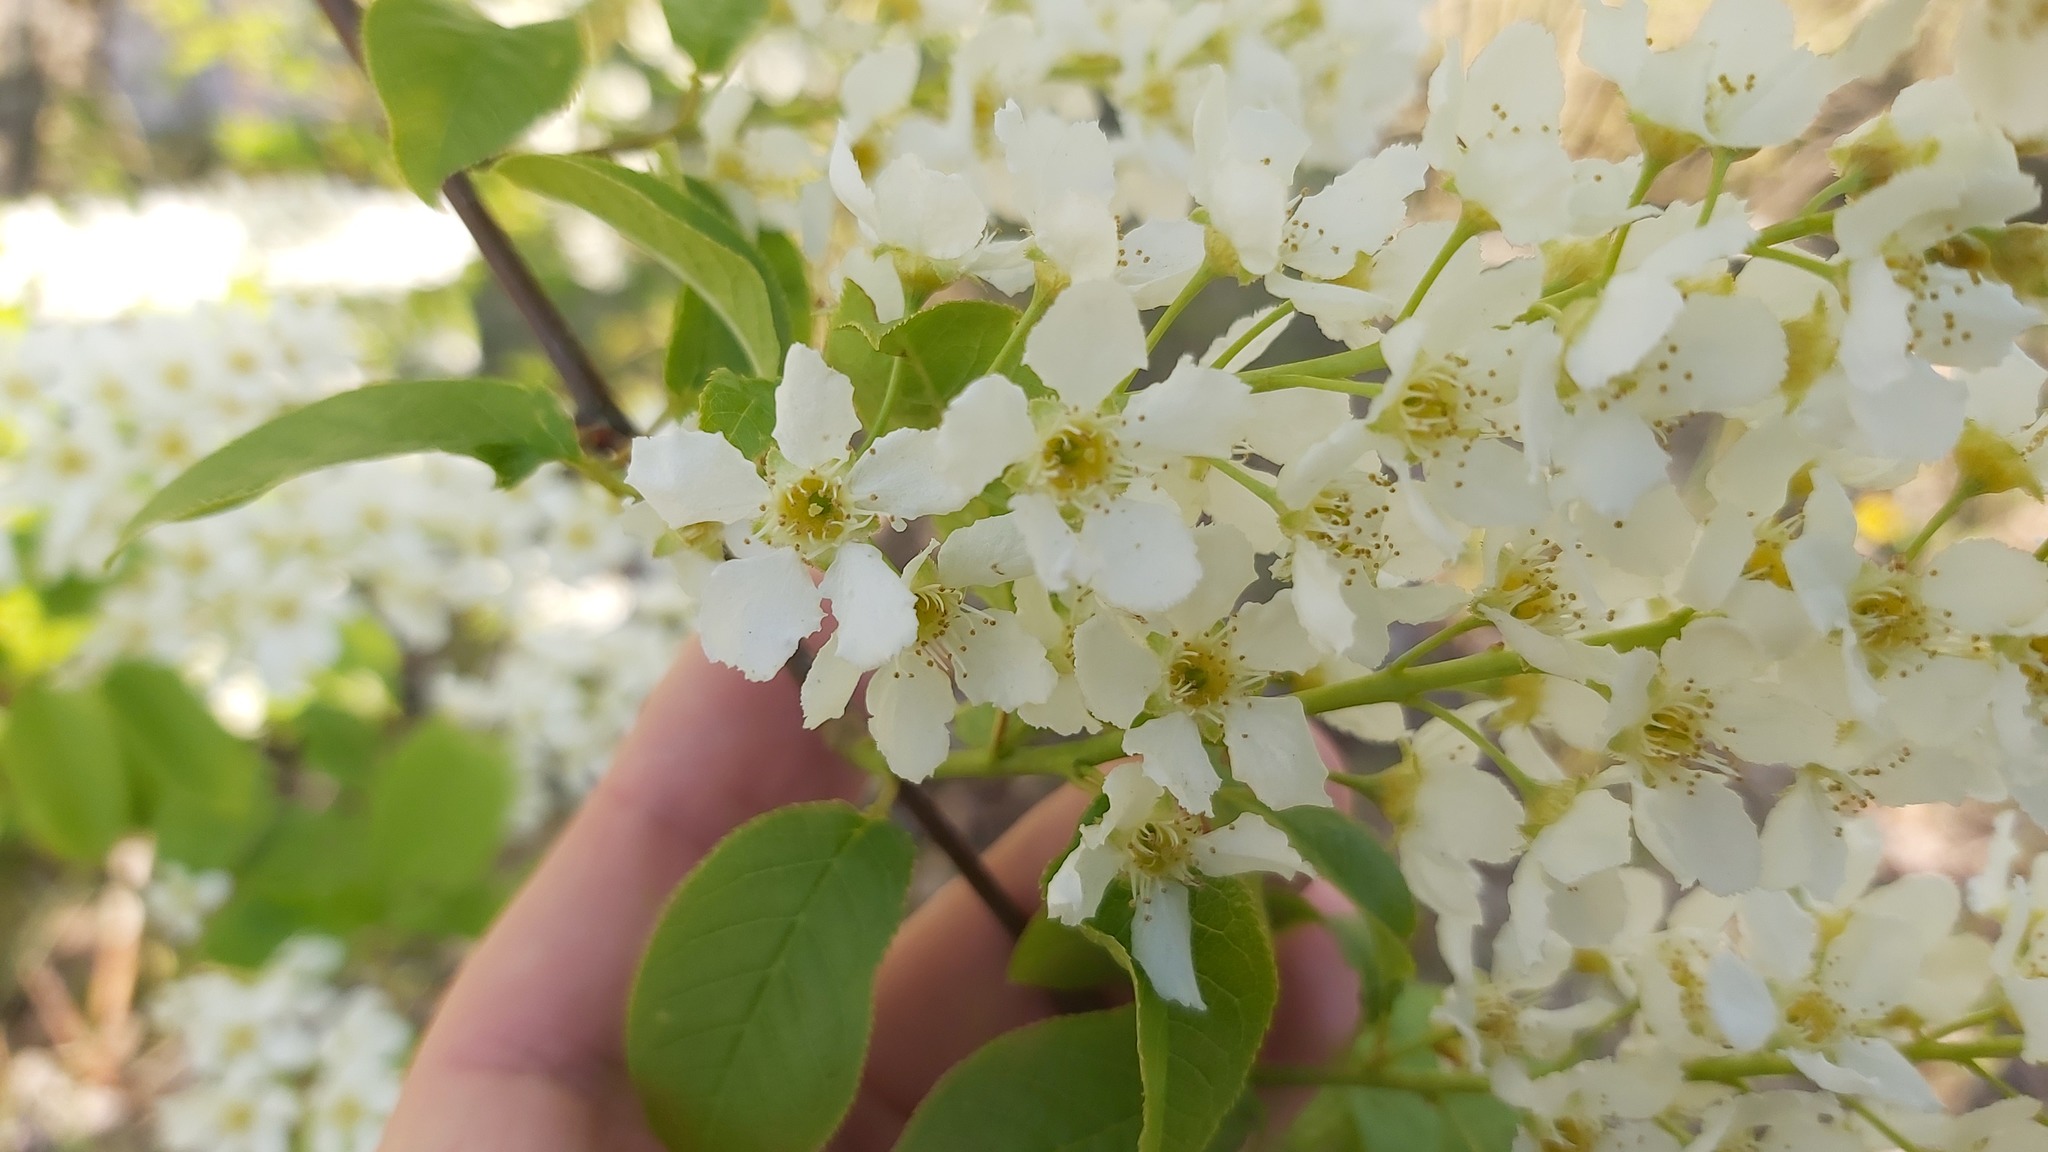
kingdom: Plantae
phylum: Tracheophyta
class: Magnoliopsida
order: Rosales
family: Rosaceae
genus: Prunus
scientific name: Prunus padus
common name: Bird cherry
